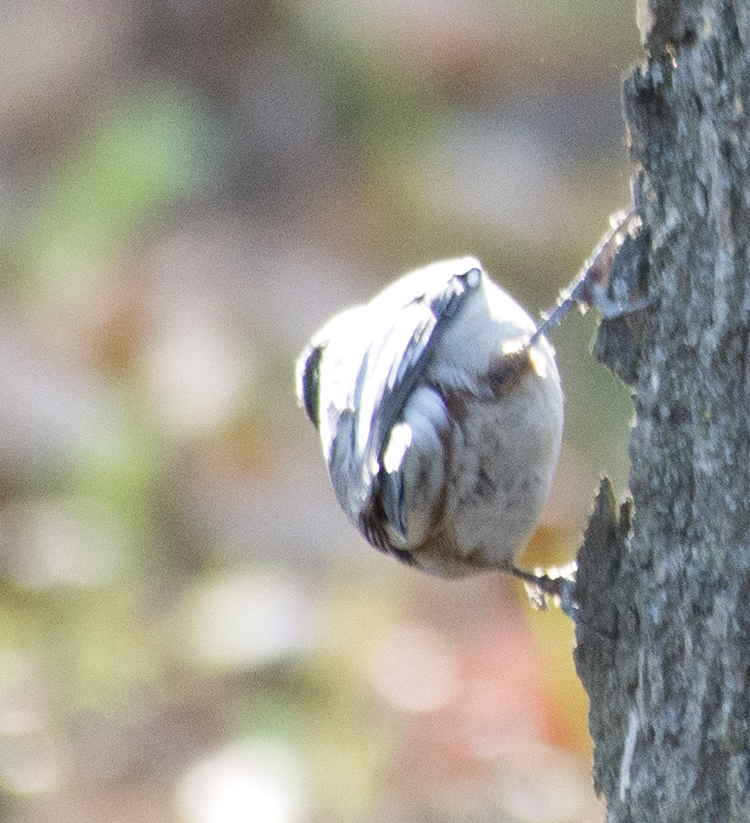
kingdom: Animalia
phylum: Chordata
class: Aves
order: Passeriformes
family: Sittidae
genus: Sitta
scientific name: Sitta carolinensis
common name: White-breasted nuthatch
